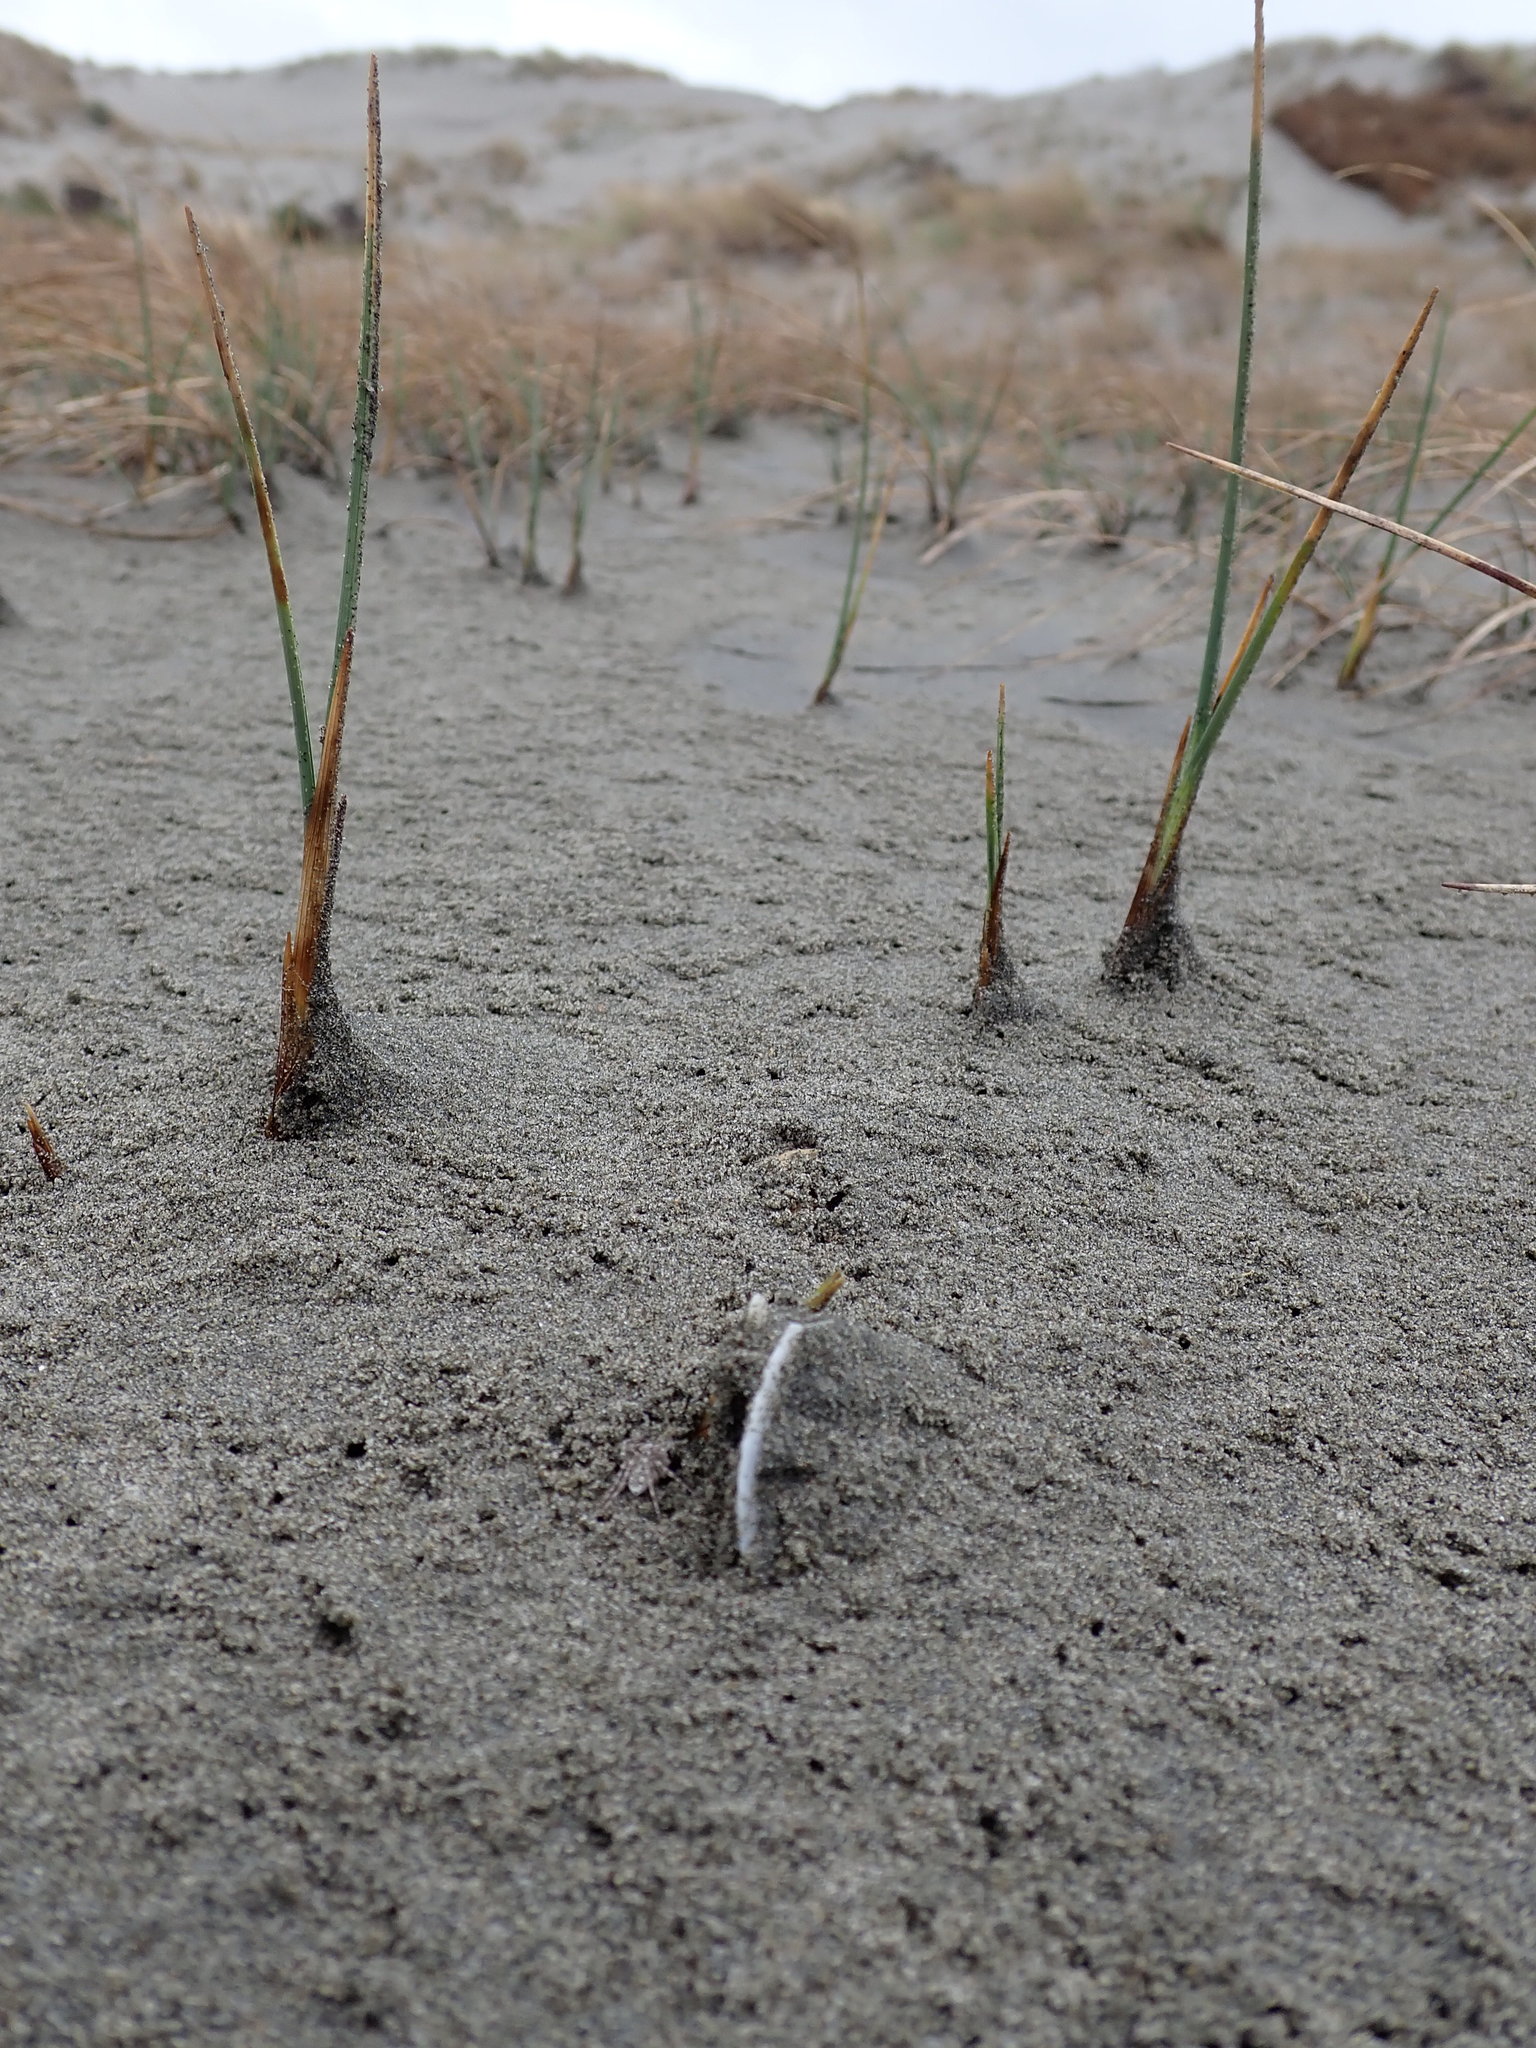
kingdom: Animalia
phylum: Arthropoda
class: Arachnida
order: Araneae
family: Lycosidae
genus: Anoteropsis
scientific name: Anoteropsis litoralis
